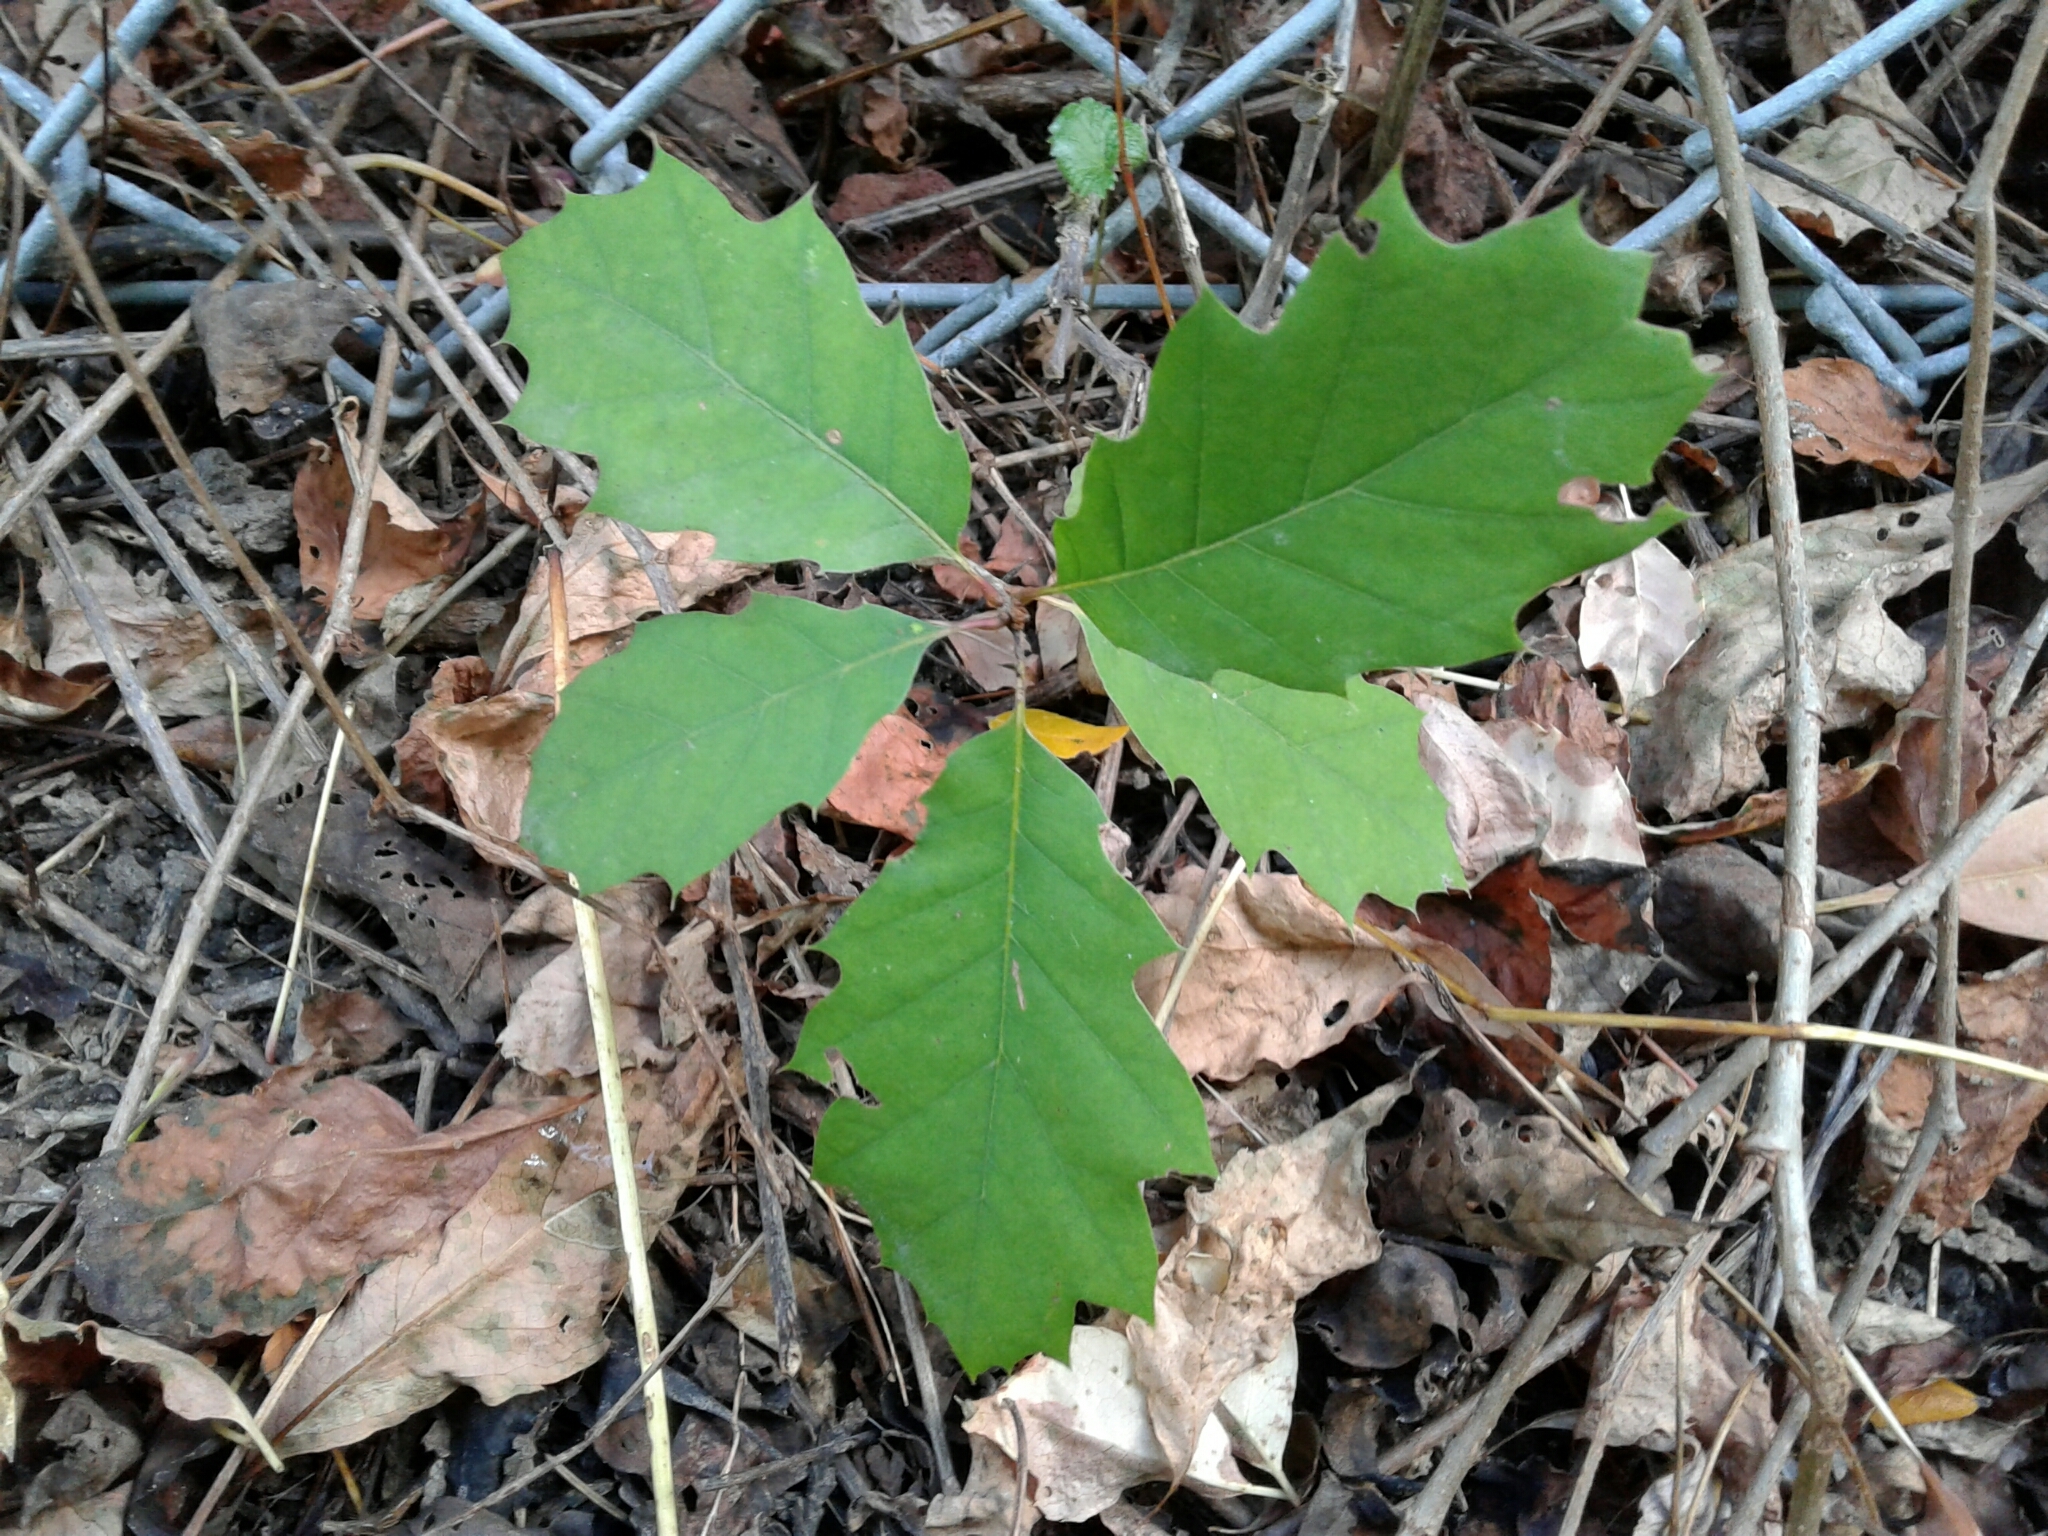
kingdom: Plantae
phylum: Tracheophyta
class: Magnoliopsida
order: Fagales
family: Fagaceae
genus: Quercus
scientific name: Quercus rubra
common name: Red oak
